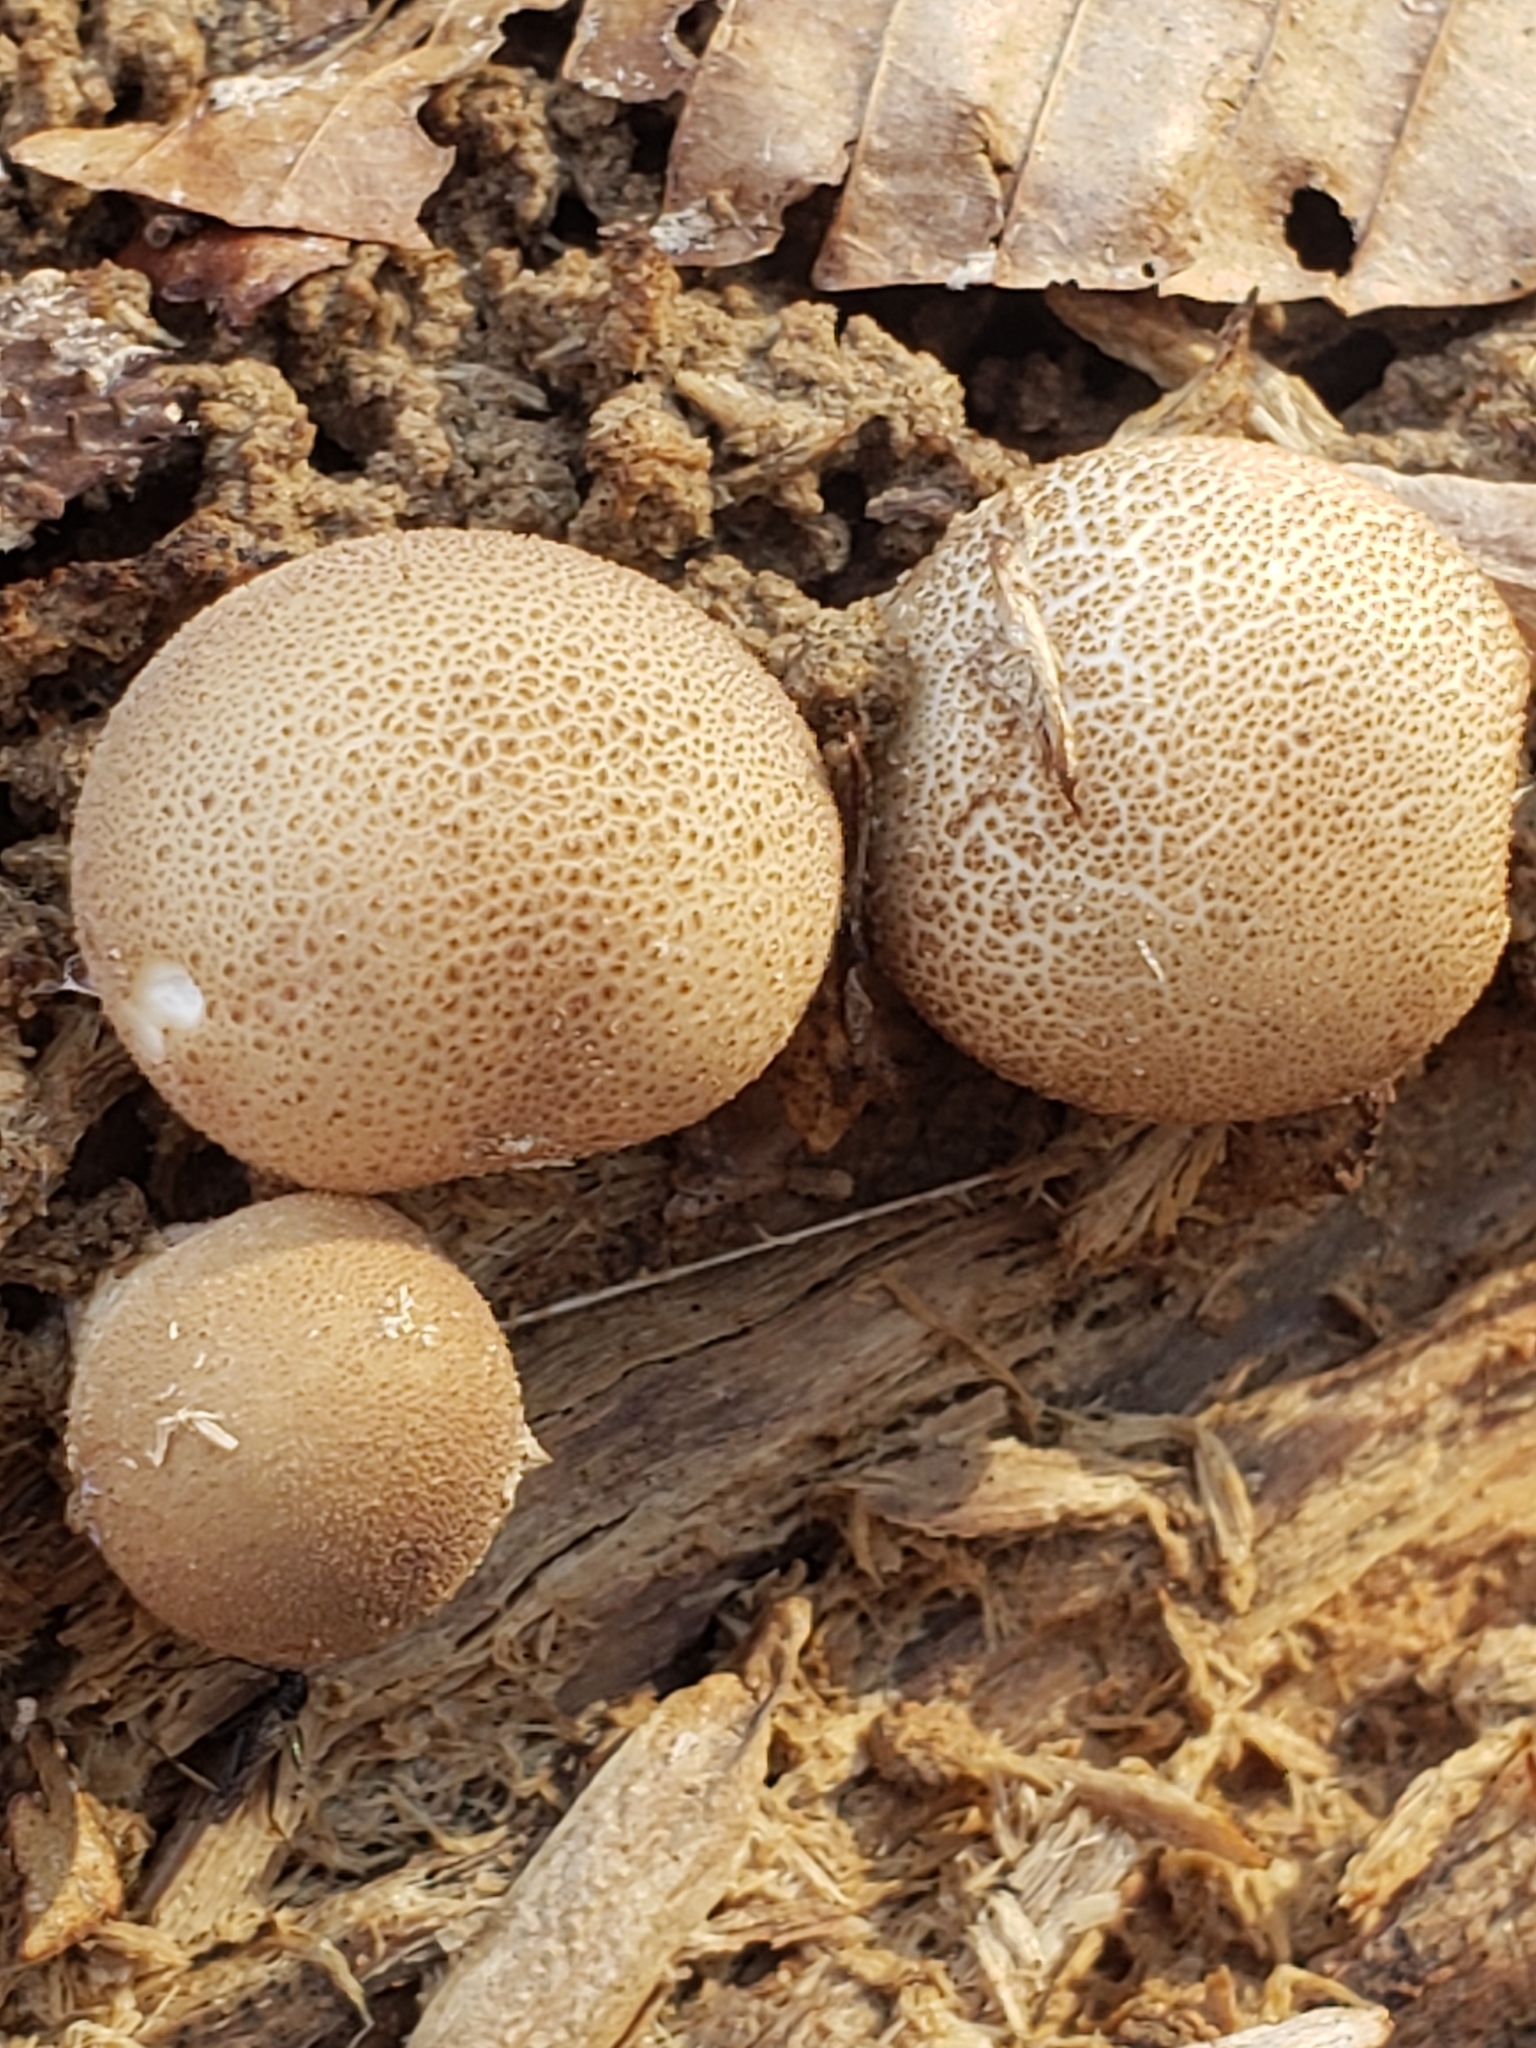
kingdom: Fungi
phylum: Basidiomycota
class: Agaricomycetes
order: Agaricales
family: Lycoperdaceae
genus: Apioperdon
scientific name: Apioperdon pyriforme
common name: Pear-shaped puffball
